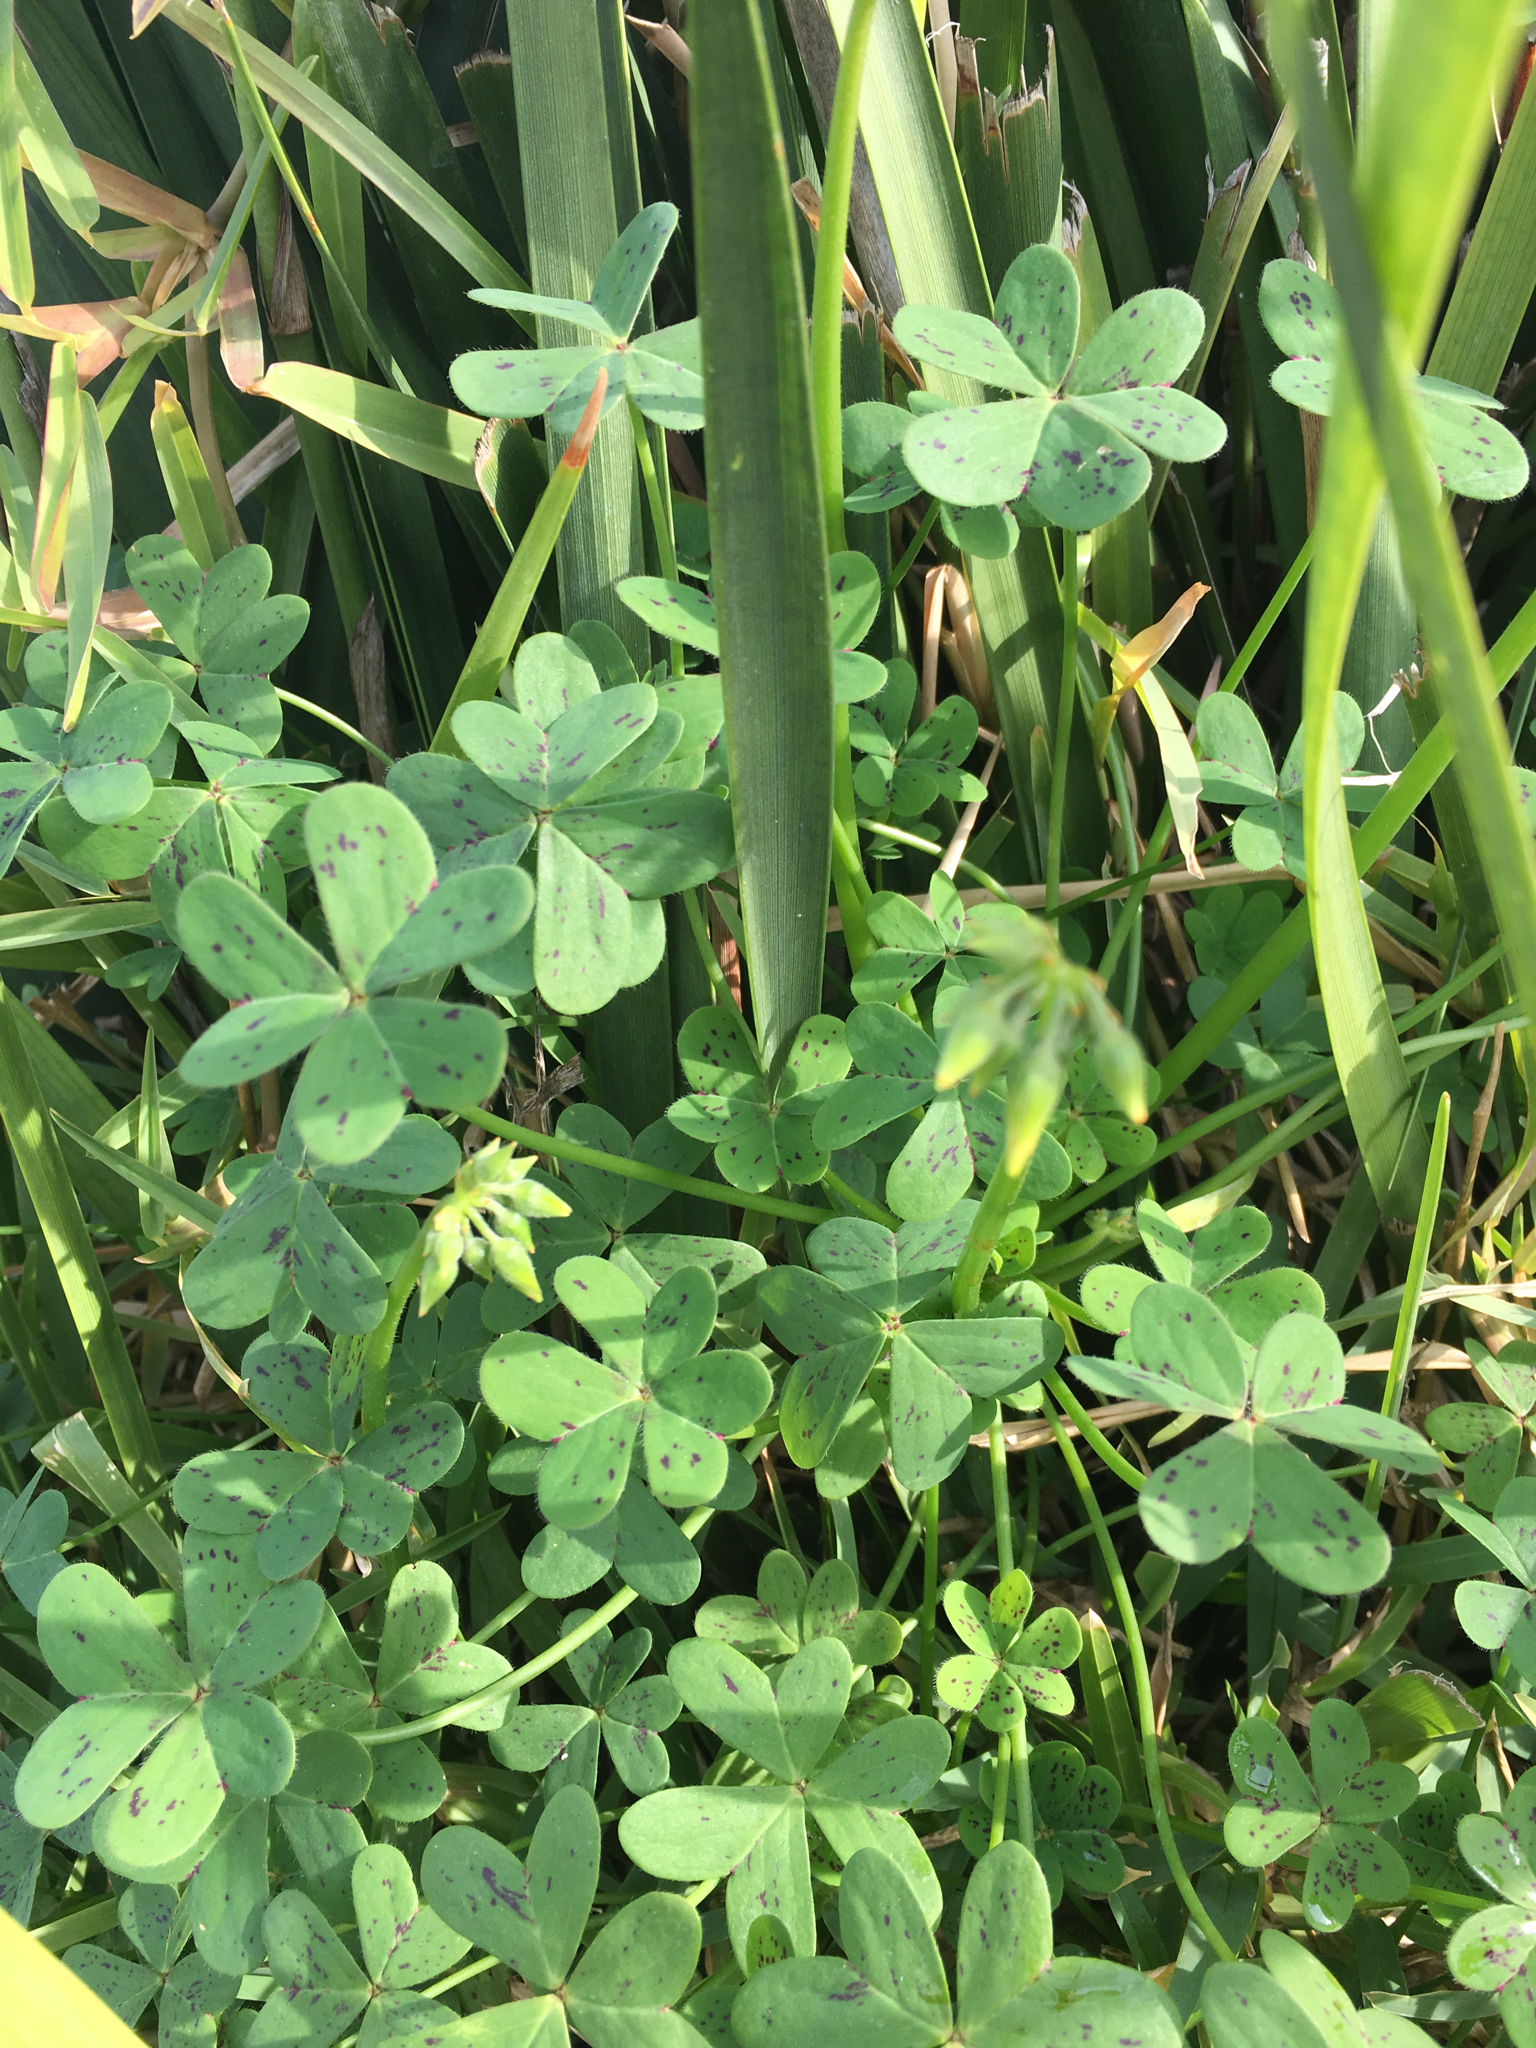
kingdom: Plantae
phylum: Tracheophyta
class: Magnoliopsida
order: Oxalidales
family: Oxalidaceae
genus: Oxalis
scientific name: Oxalis pes-caprae
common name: Bermuda-buttercup
